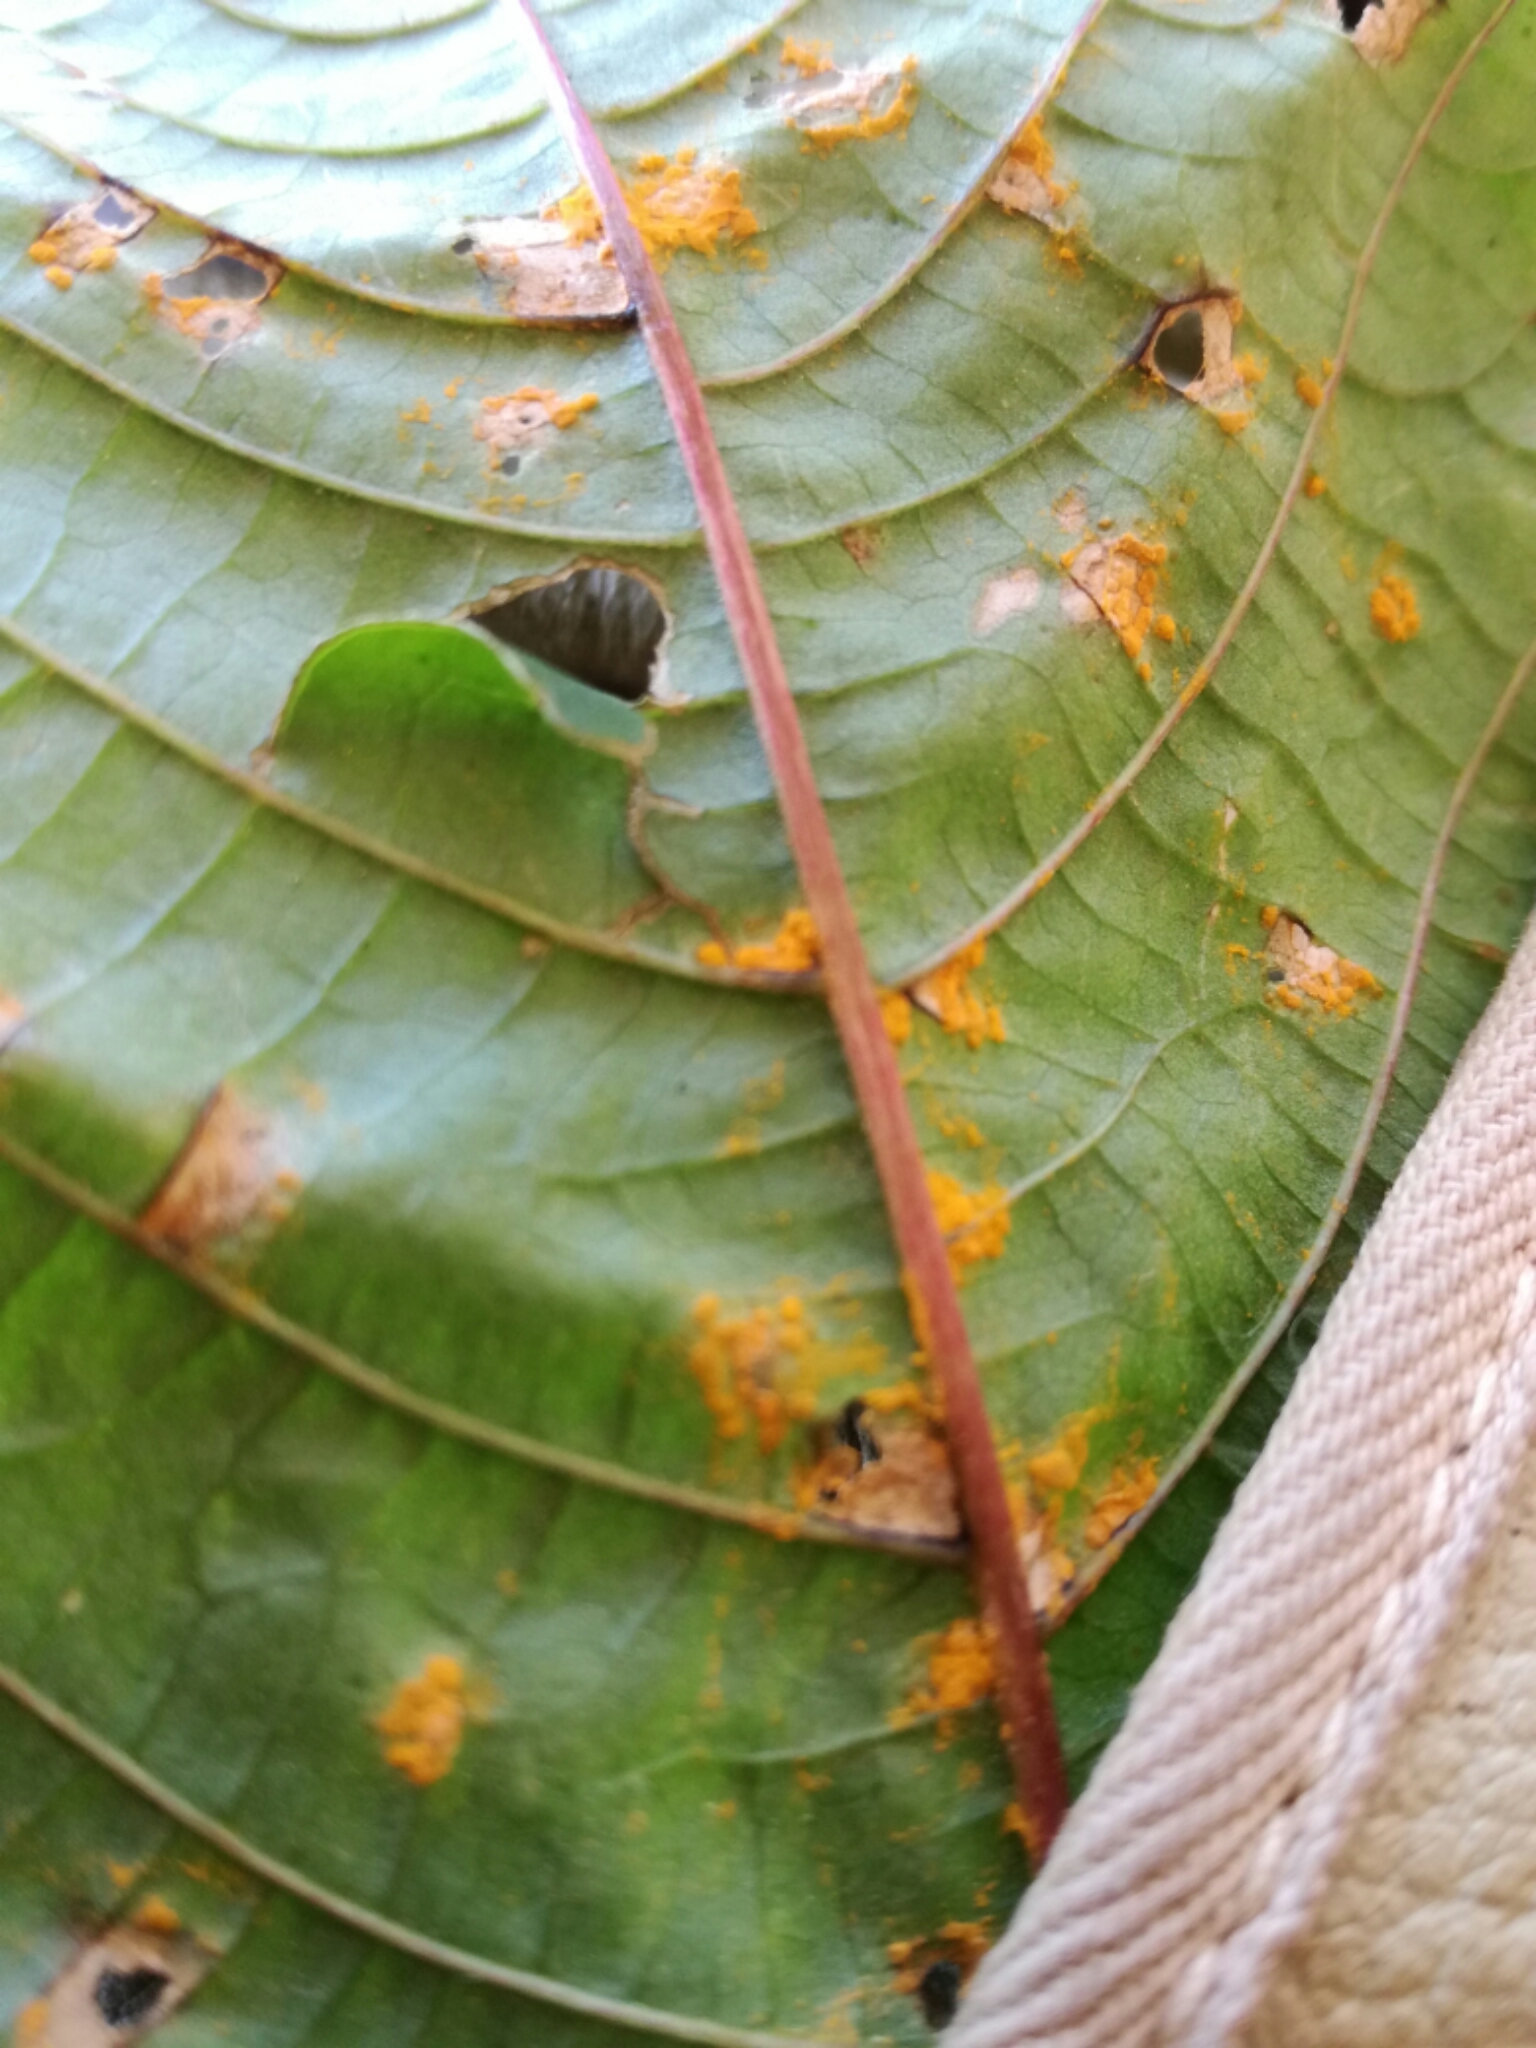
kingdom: Fungi
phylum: Basidiomycota
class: Pucciniomycetes
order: Pucciniales
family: Melampsoraceae
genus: Melampsora
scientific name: Melampsora ricini
